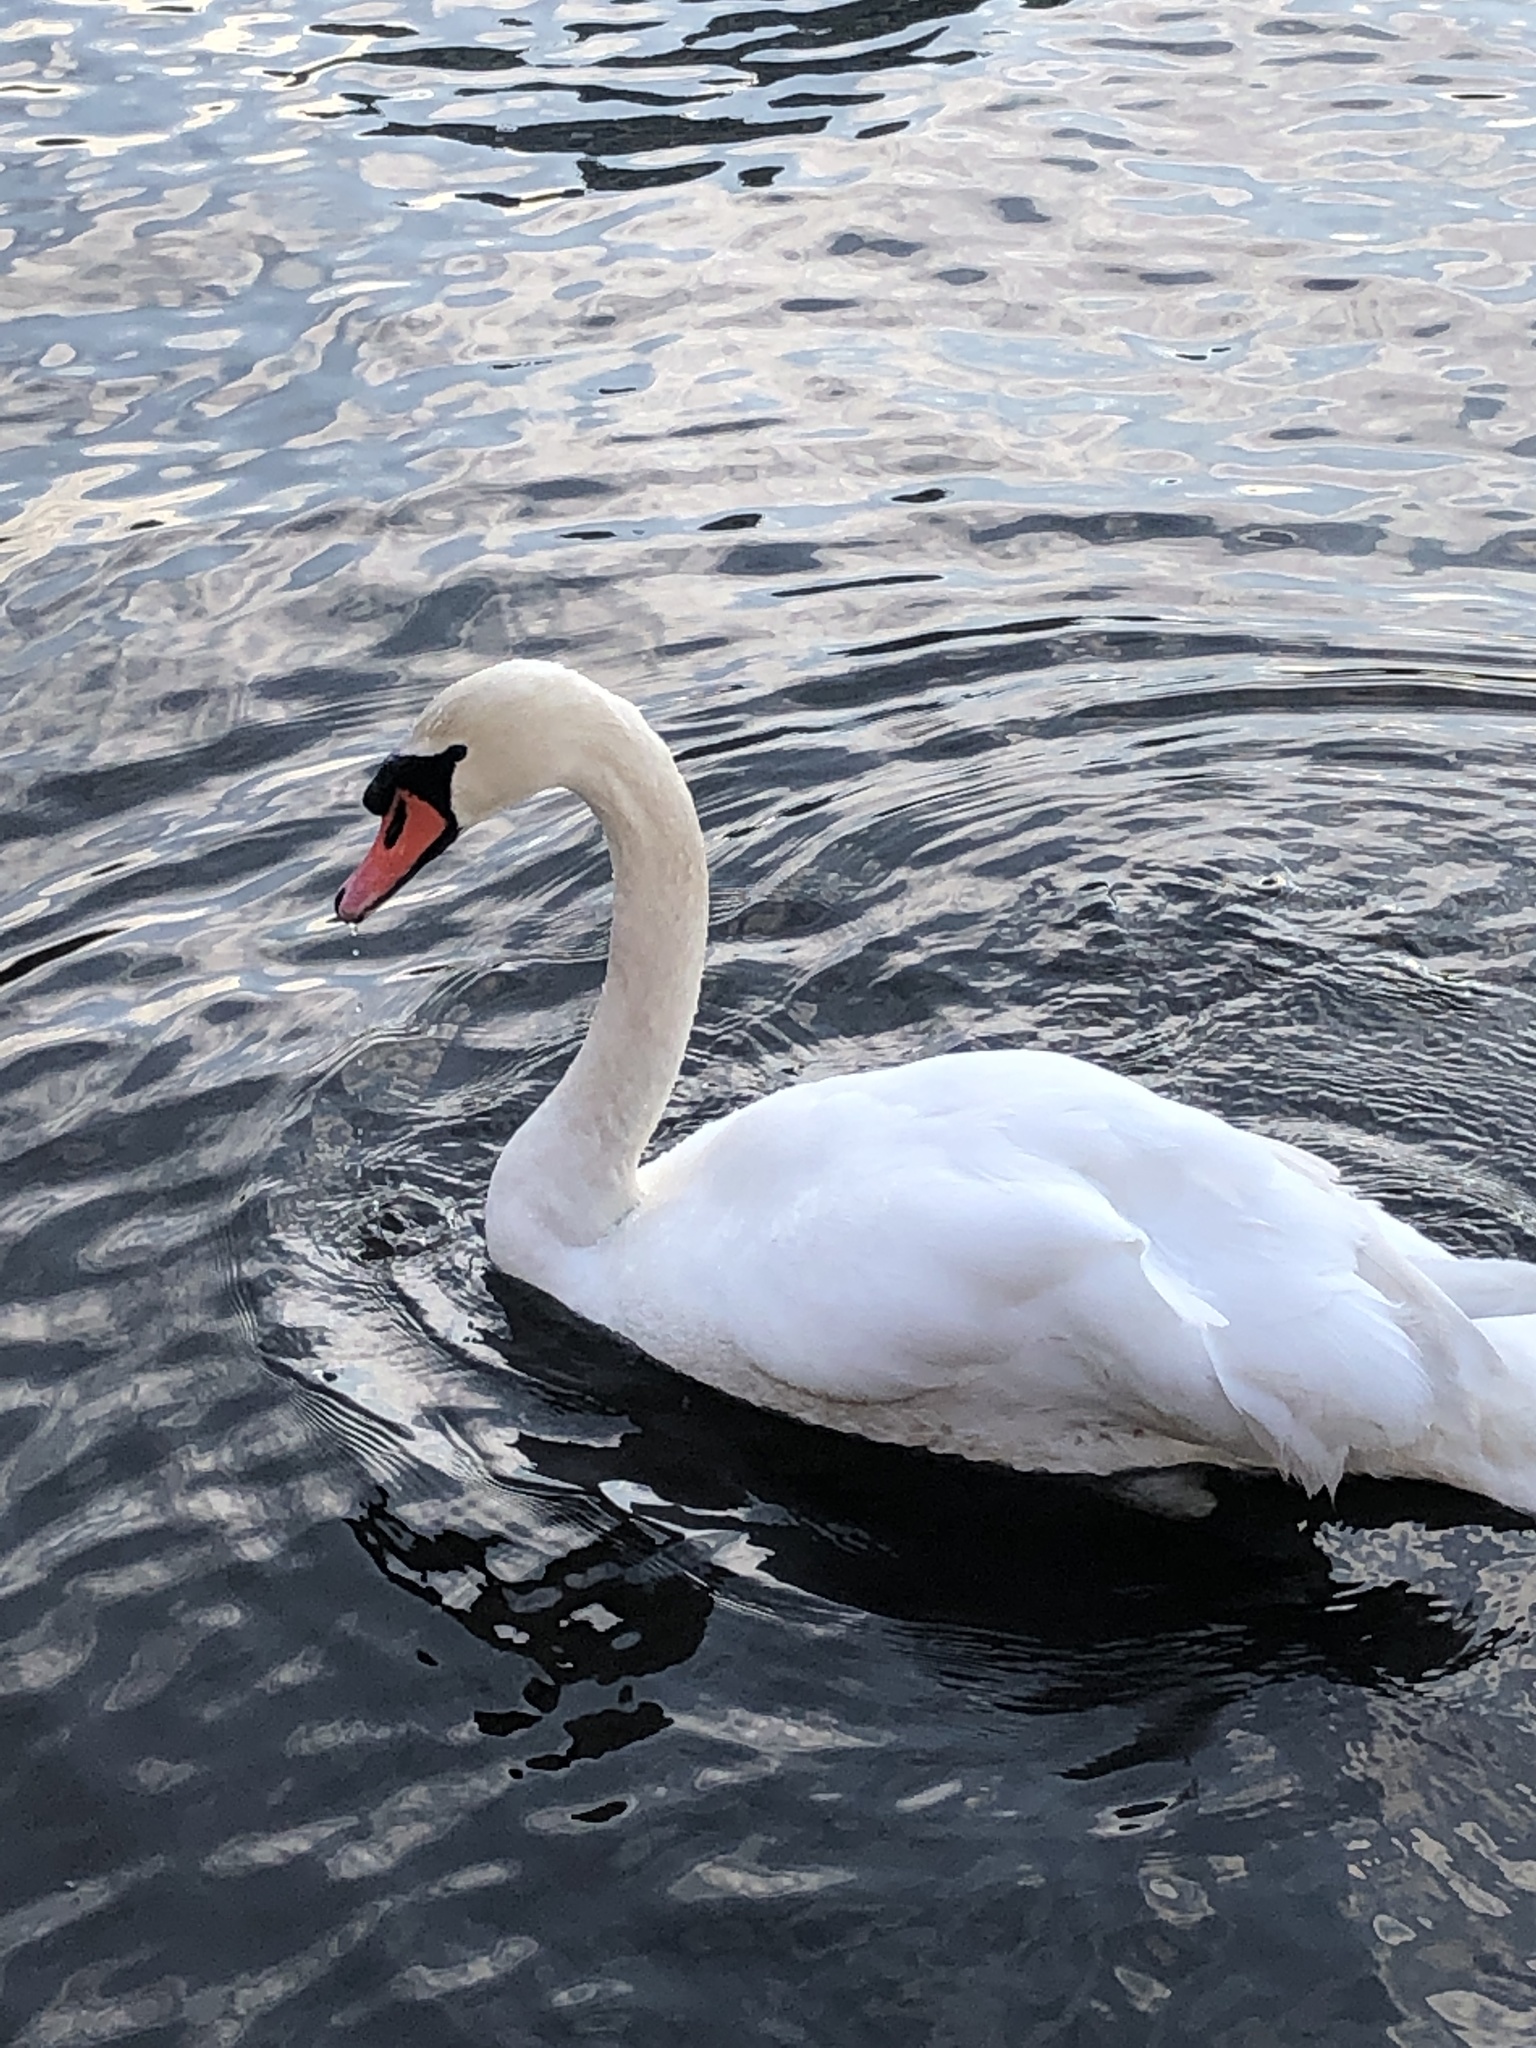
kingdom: Animalia
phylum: Chordata
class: Aves
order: Anseriformes
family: Anatidae
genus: Cygnus
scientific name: Cygnus olor
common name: Mute swan
